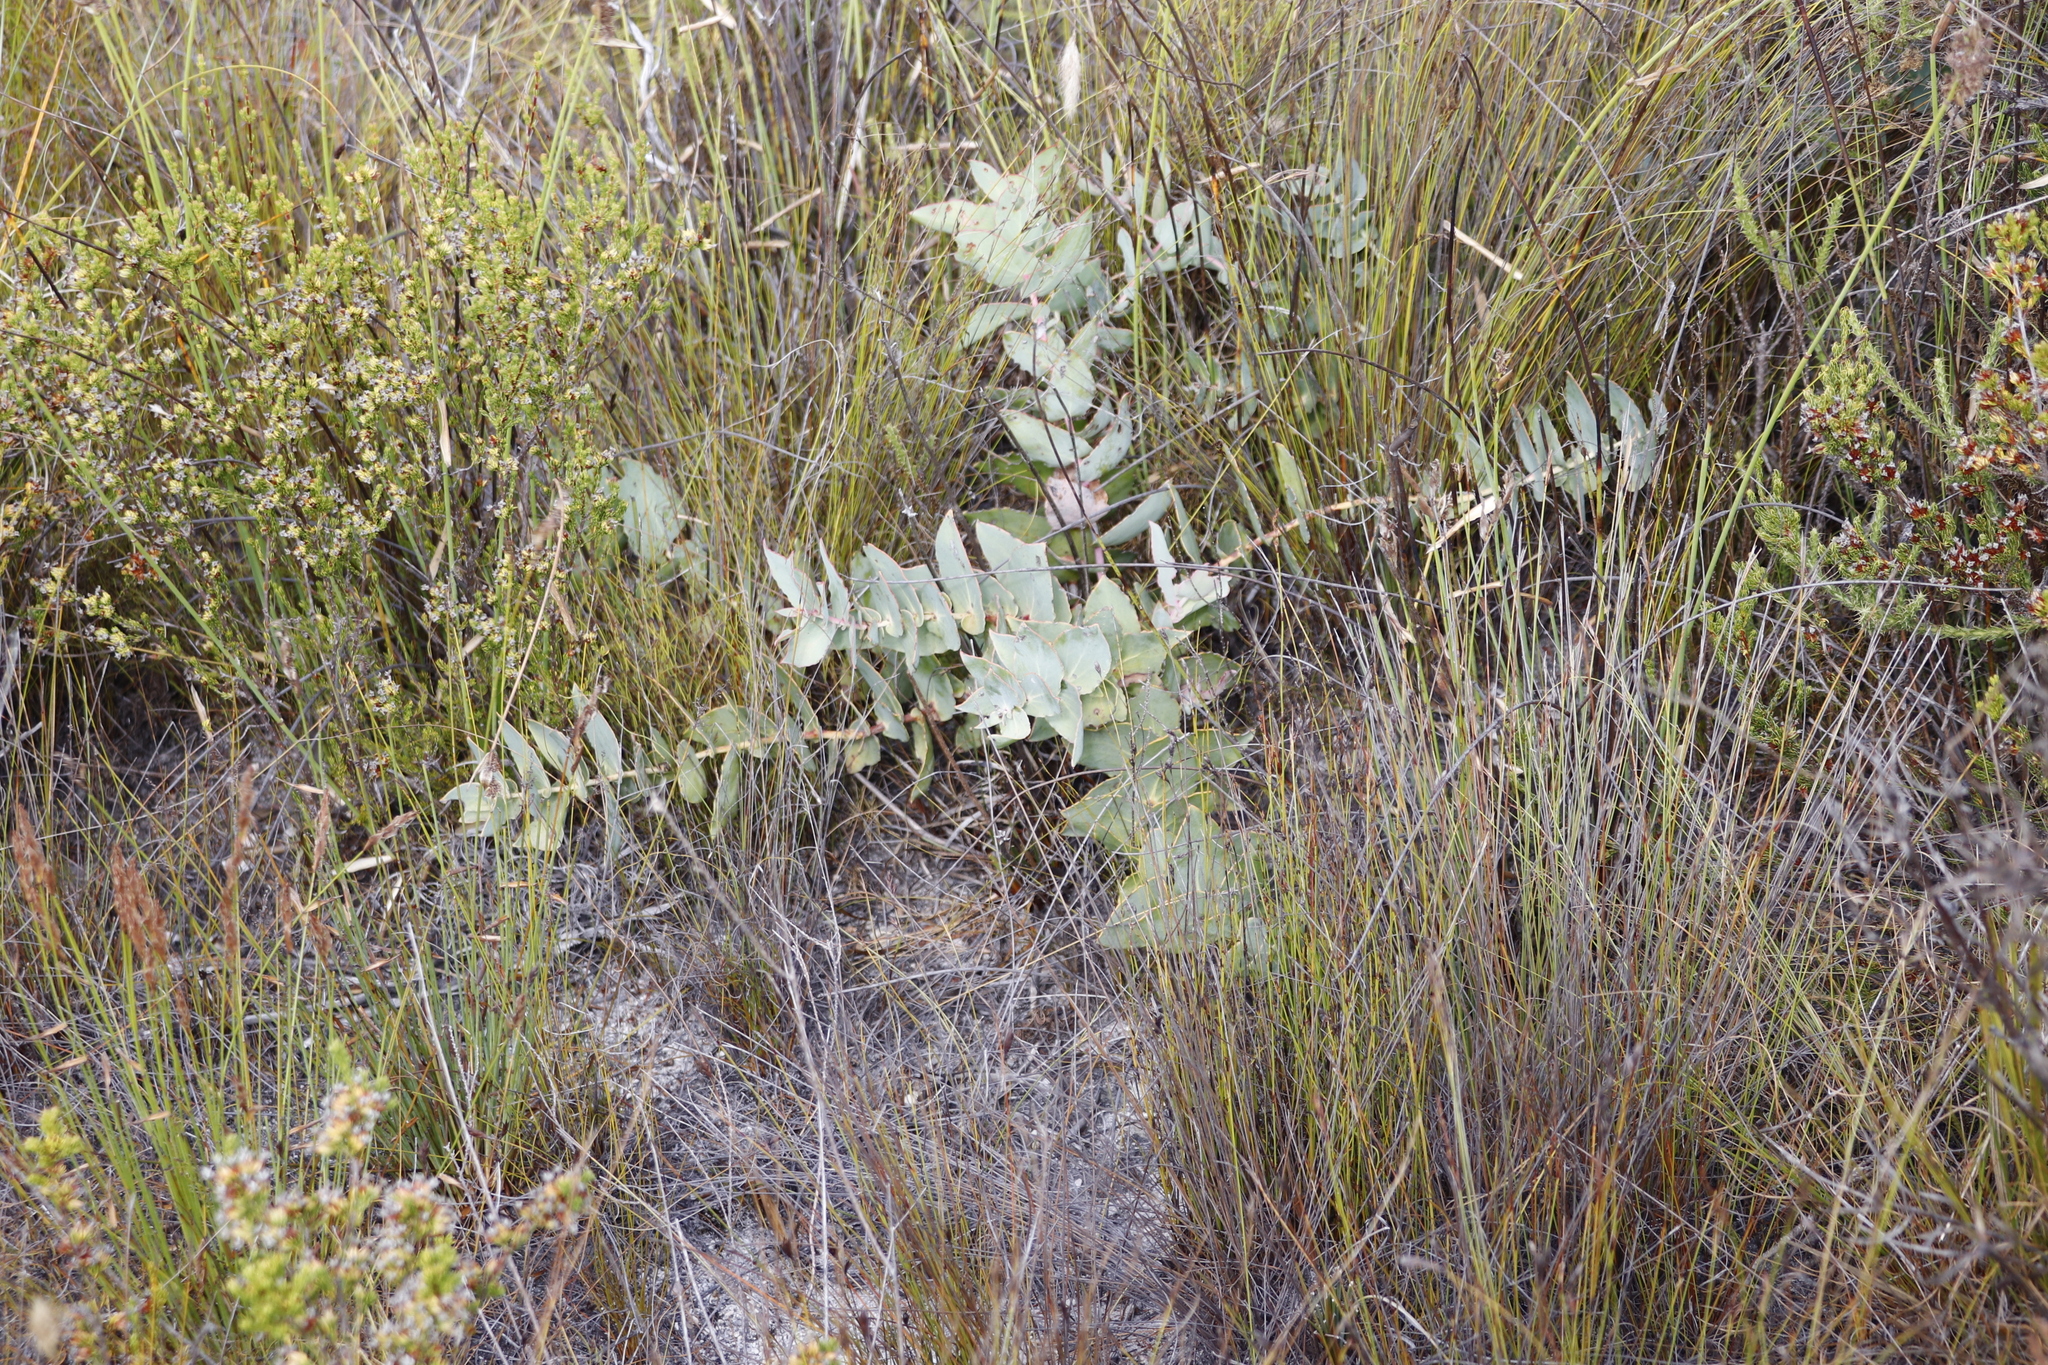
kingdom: Plantae
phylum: Tracheophyta
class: Magnoliopsida
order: Proteales
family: Proteaceae
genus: Protea
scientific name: Protea amplexicaulis
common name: Clasping-leaf sugarbush
